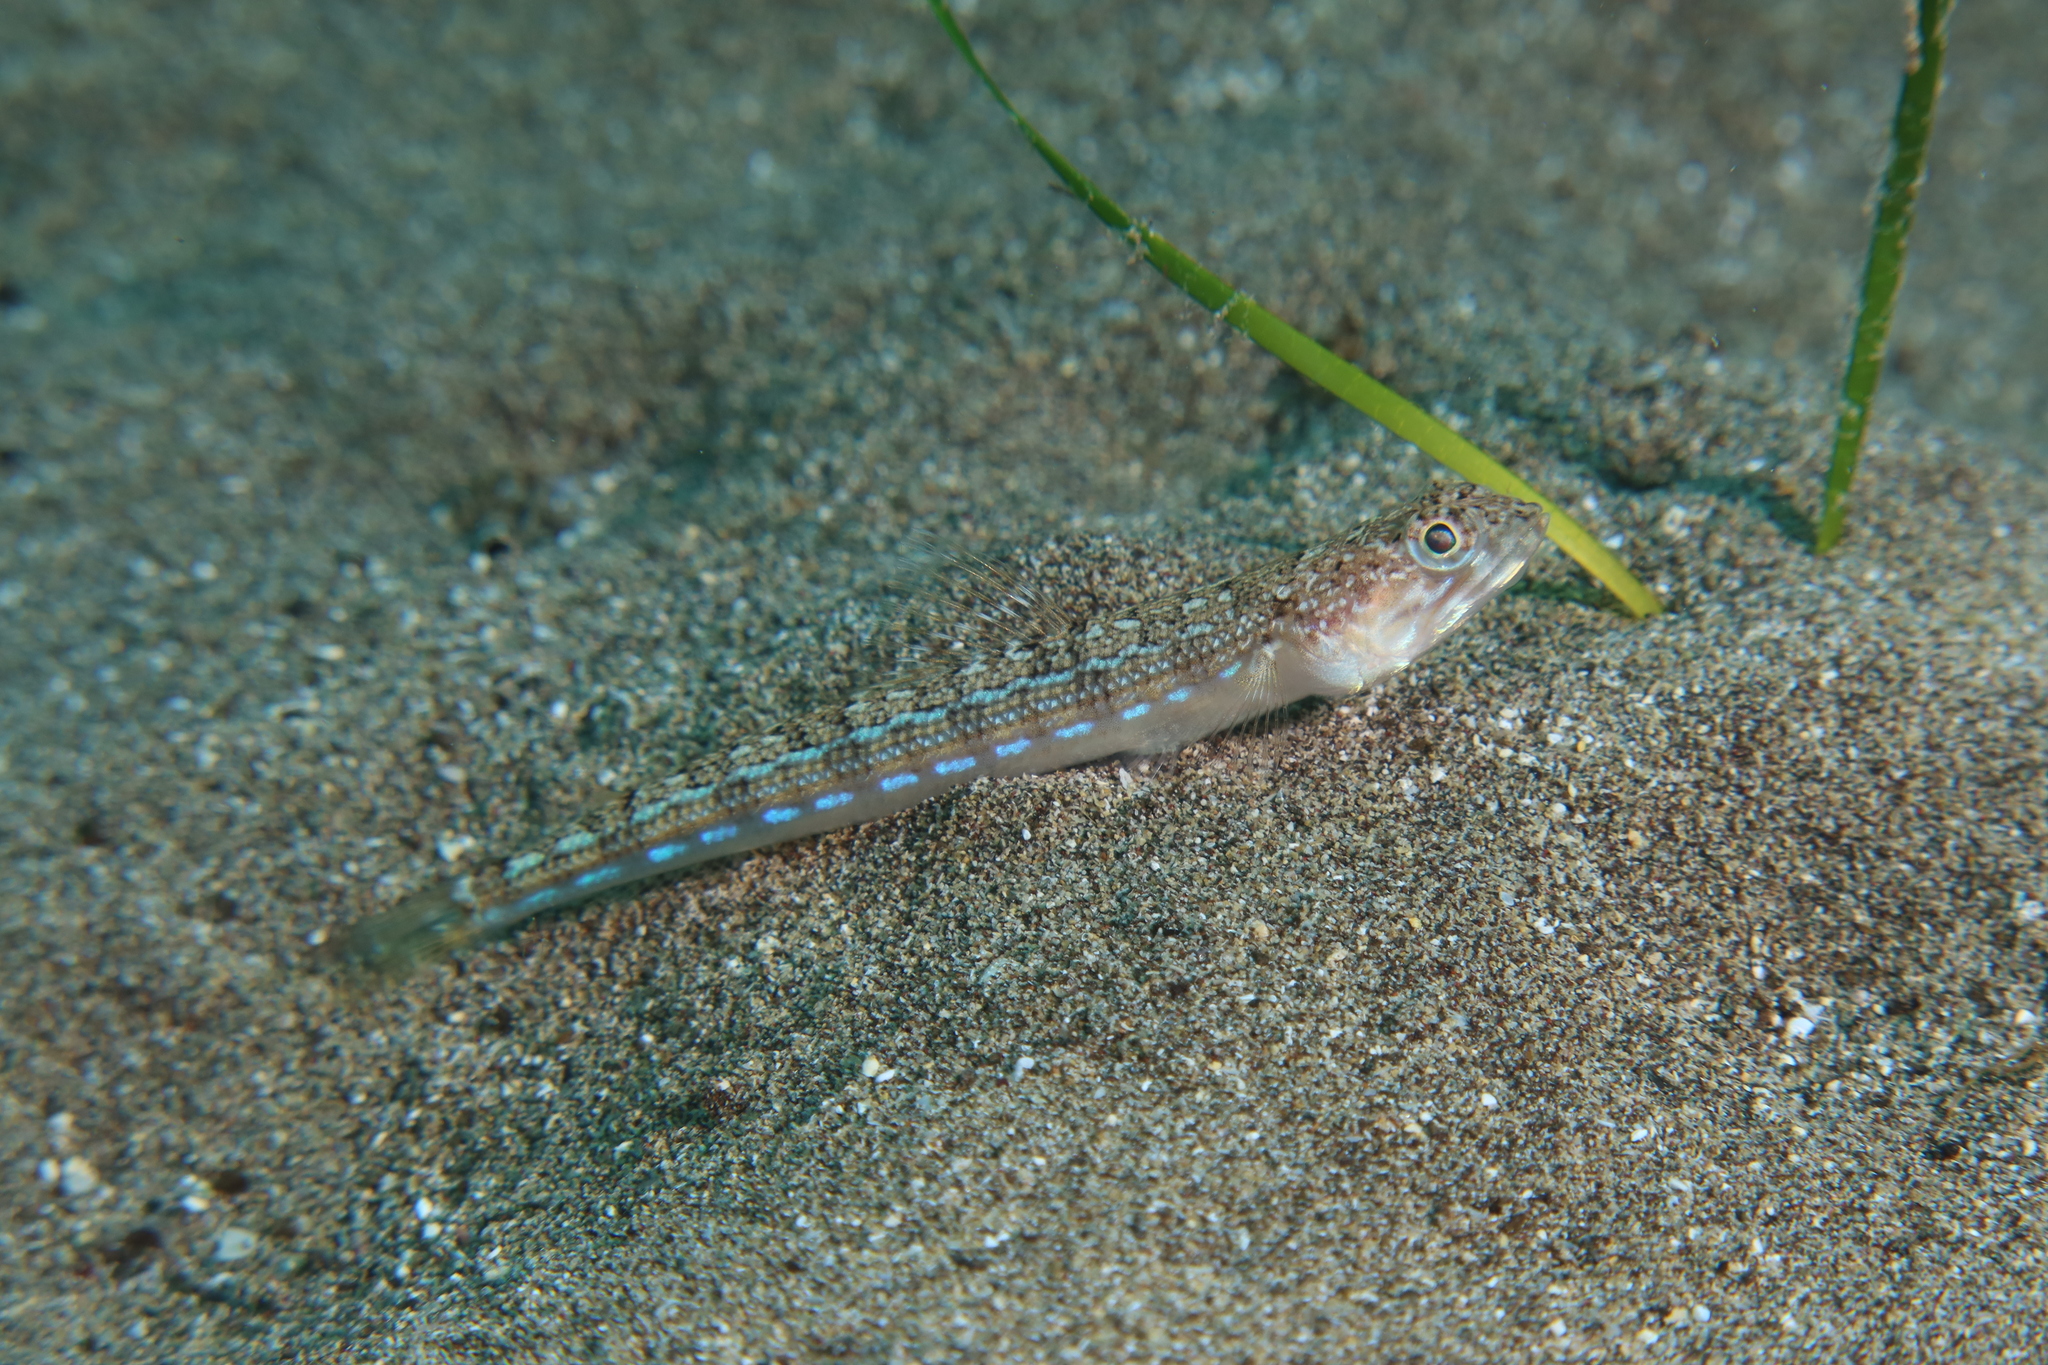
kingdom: Animalia
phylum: Chordata
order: Aulopiformes
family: Synodontidae
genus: Synodus
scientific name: Synodus saurus
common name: Atlantic lizardfish
